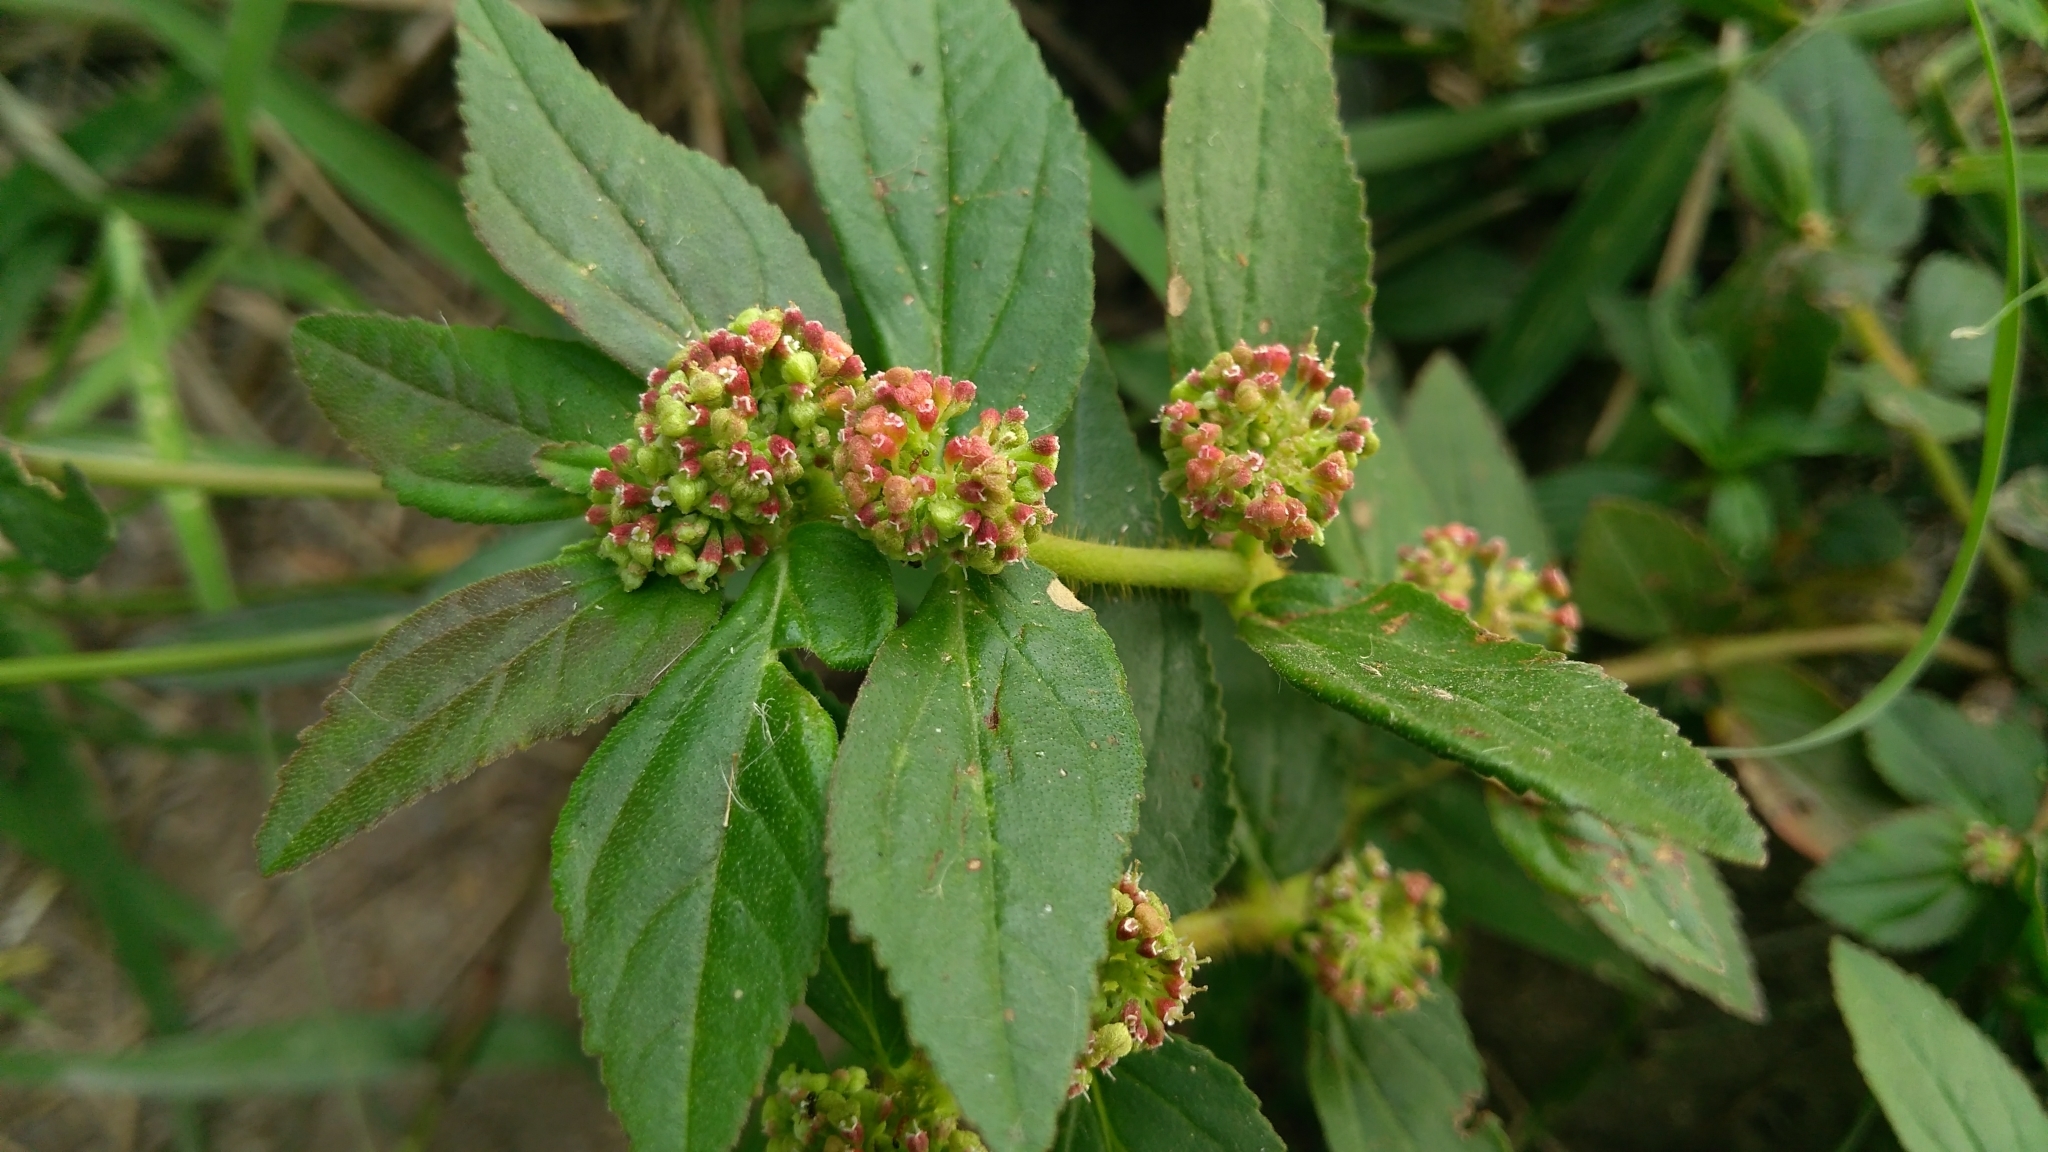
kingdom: Plantae
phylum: Tracheophyta
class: Magnoliopsida
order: Malpighiales
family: Euphorbiaceae
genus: Euphorbia
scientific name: Euphorbia hirta
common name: Pillpod sandmat
